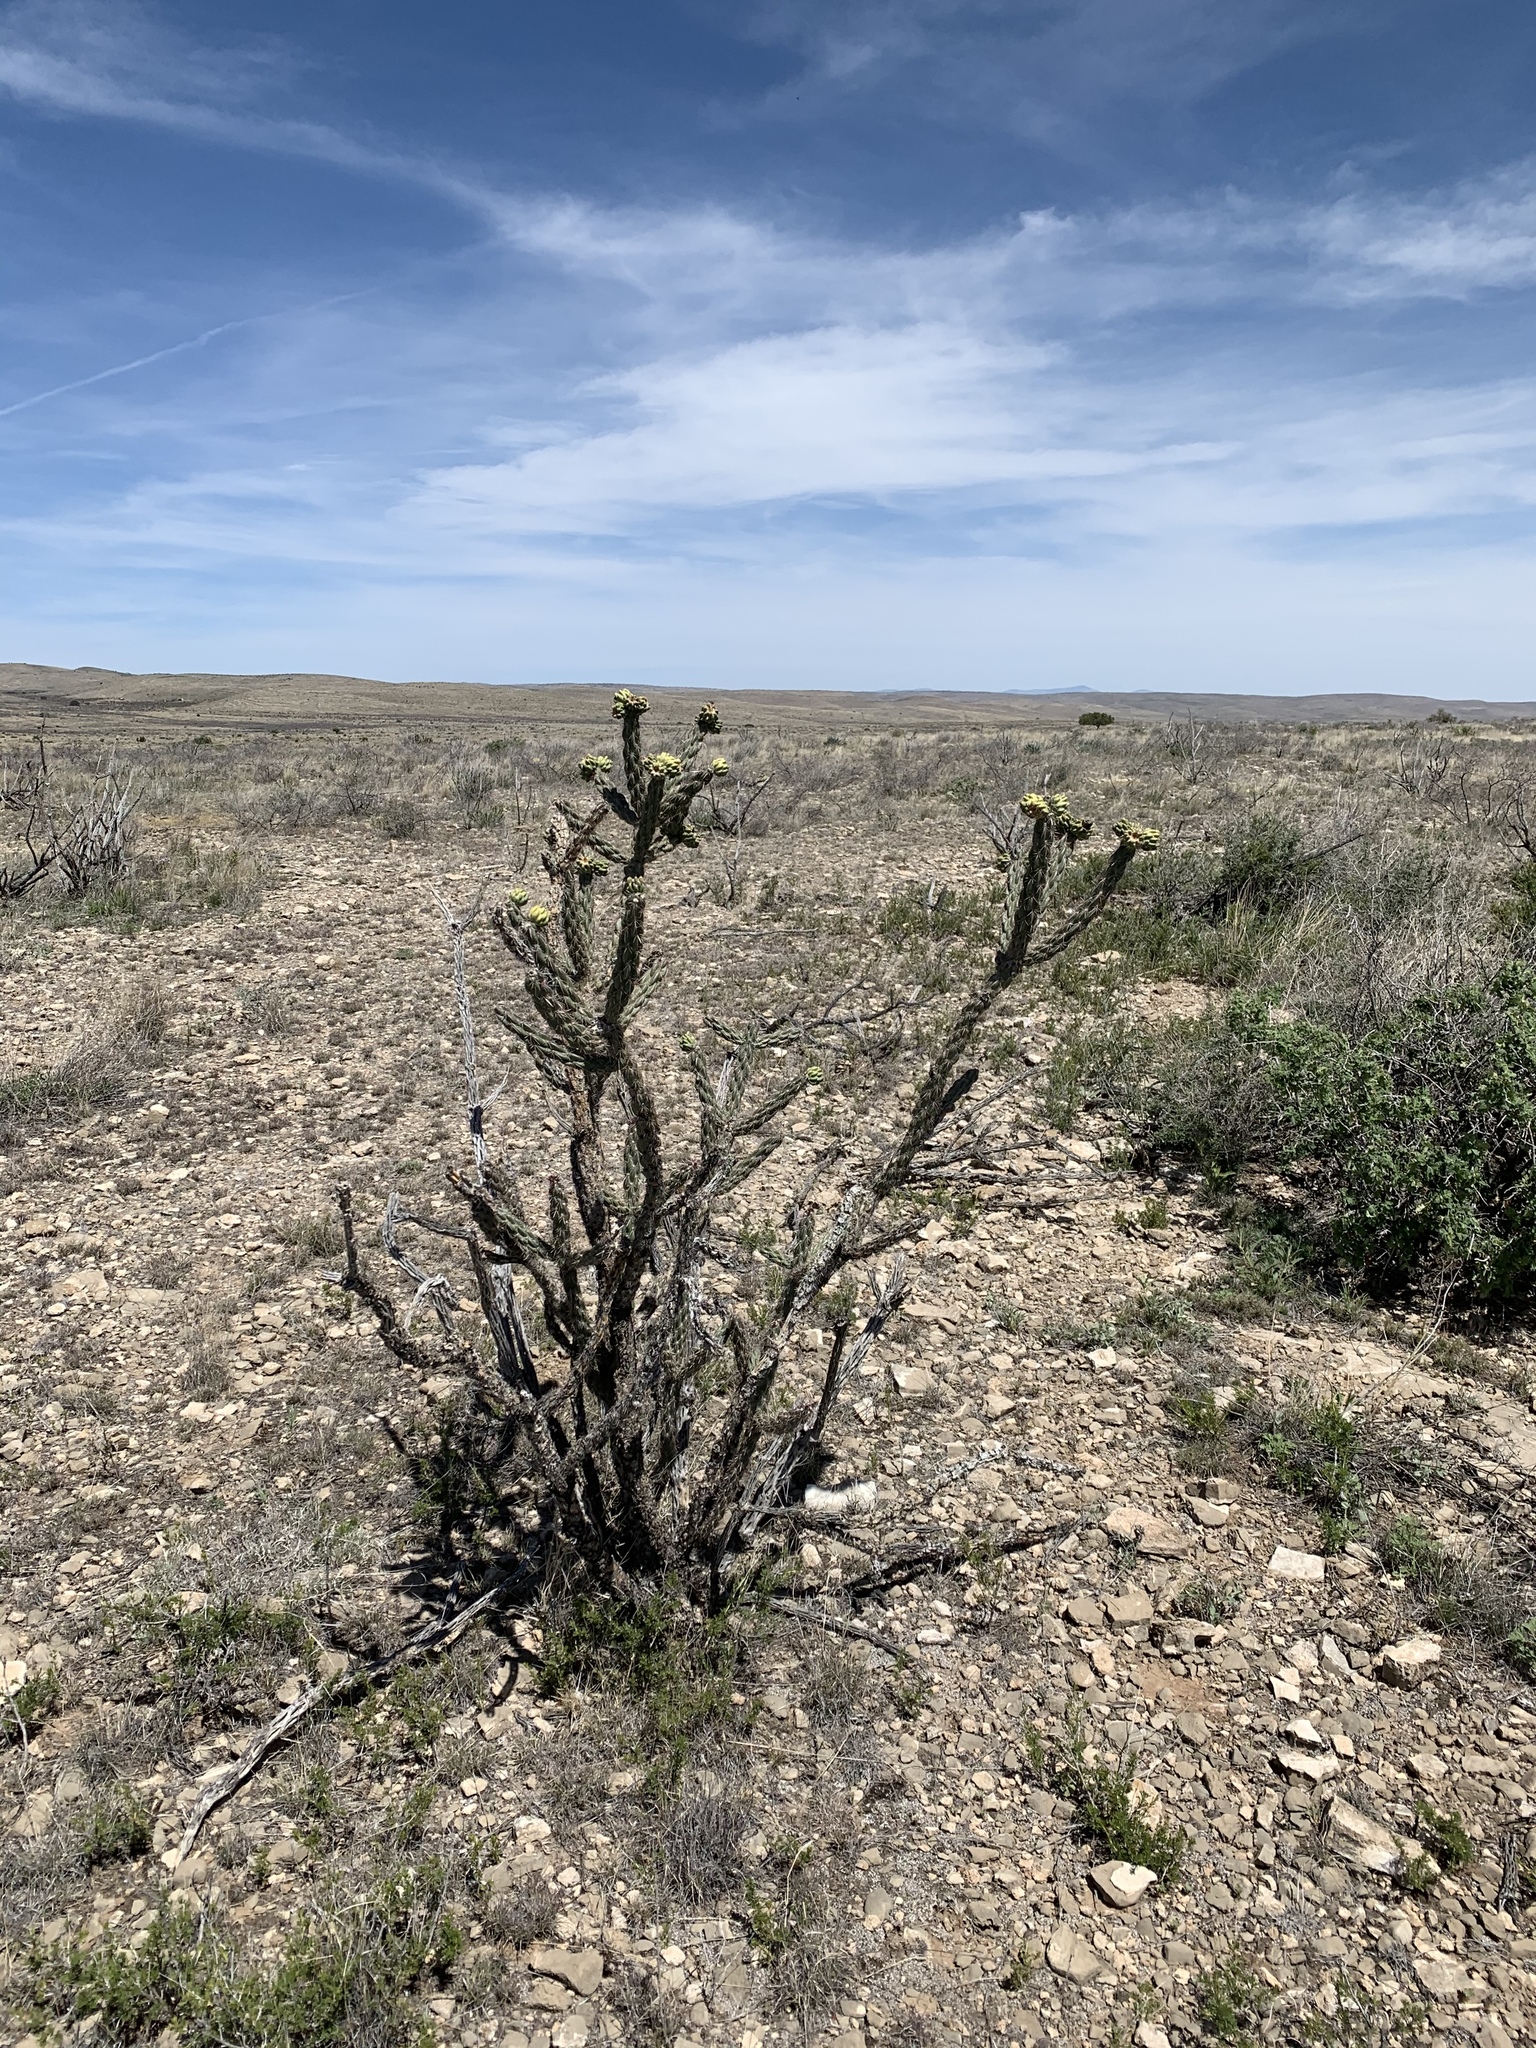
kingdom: Plantae
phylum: Tracheophyta
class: Magnoliopsida
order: Caryophyllales
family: Cactaceae
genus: Cylindropuntia
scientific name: Cylindropuntia imbricata
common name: Candelabrum cactus
